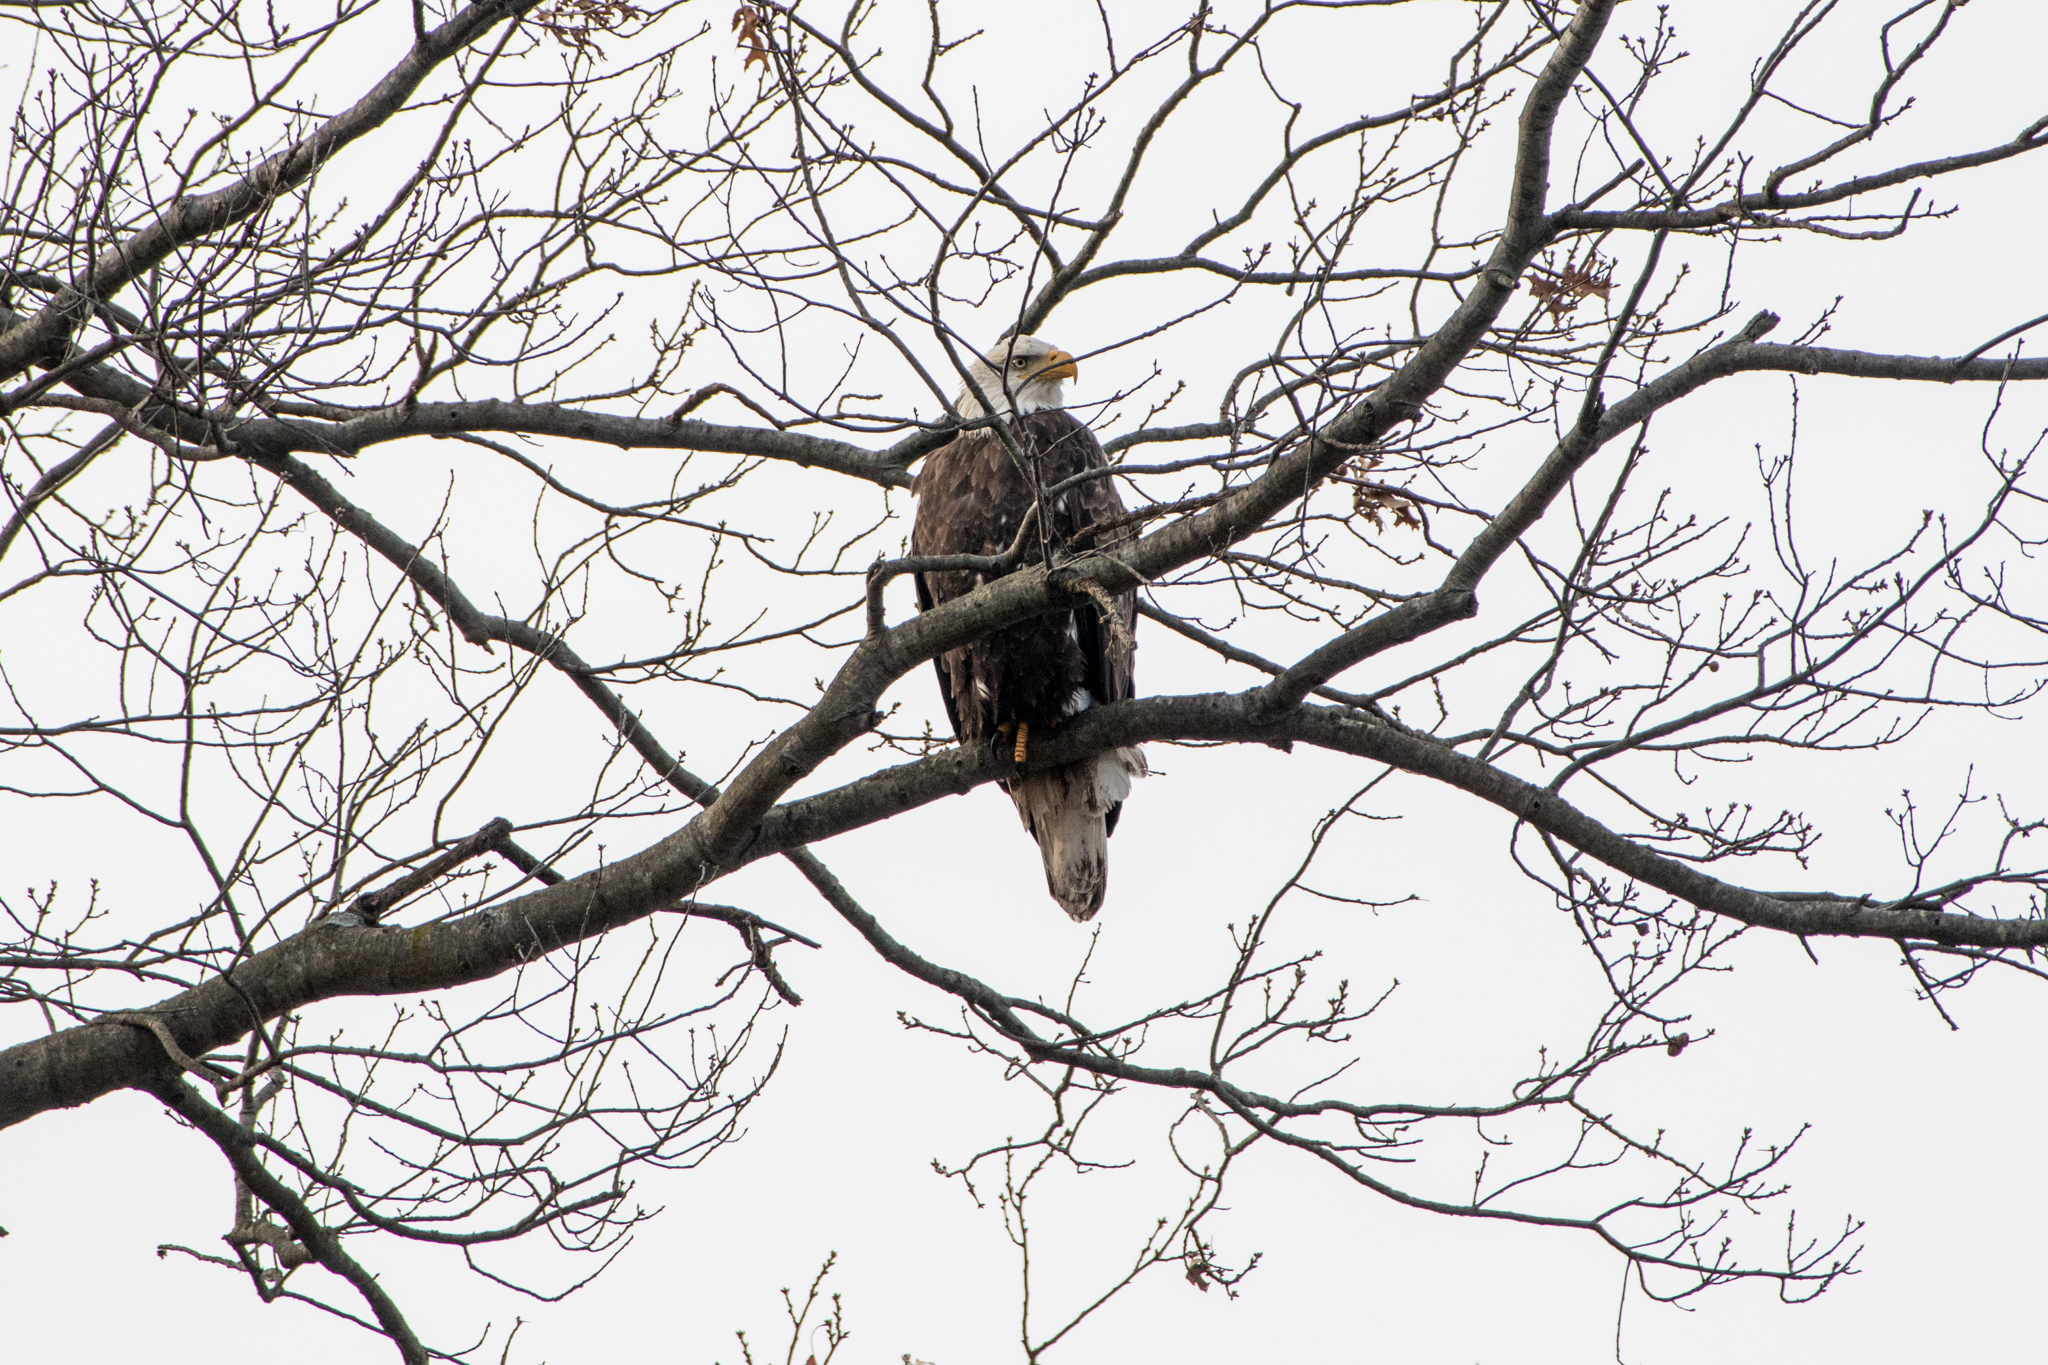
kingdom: Animalia
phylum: Chordata
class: Aves
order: Accipitriformes
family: Accipitridae
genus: Haliaeetus
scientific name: Haliaeetus leucocephalus
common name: Bald eagle
